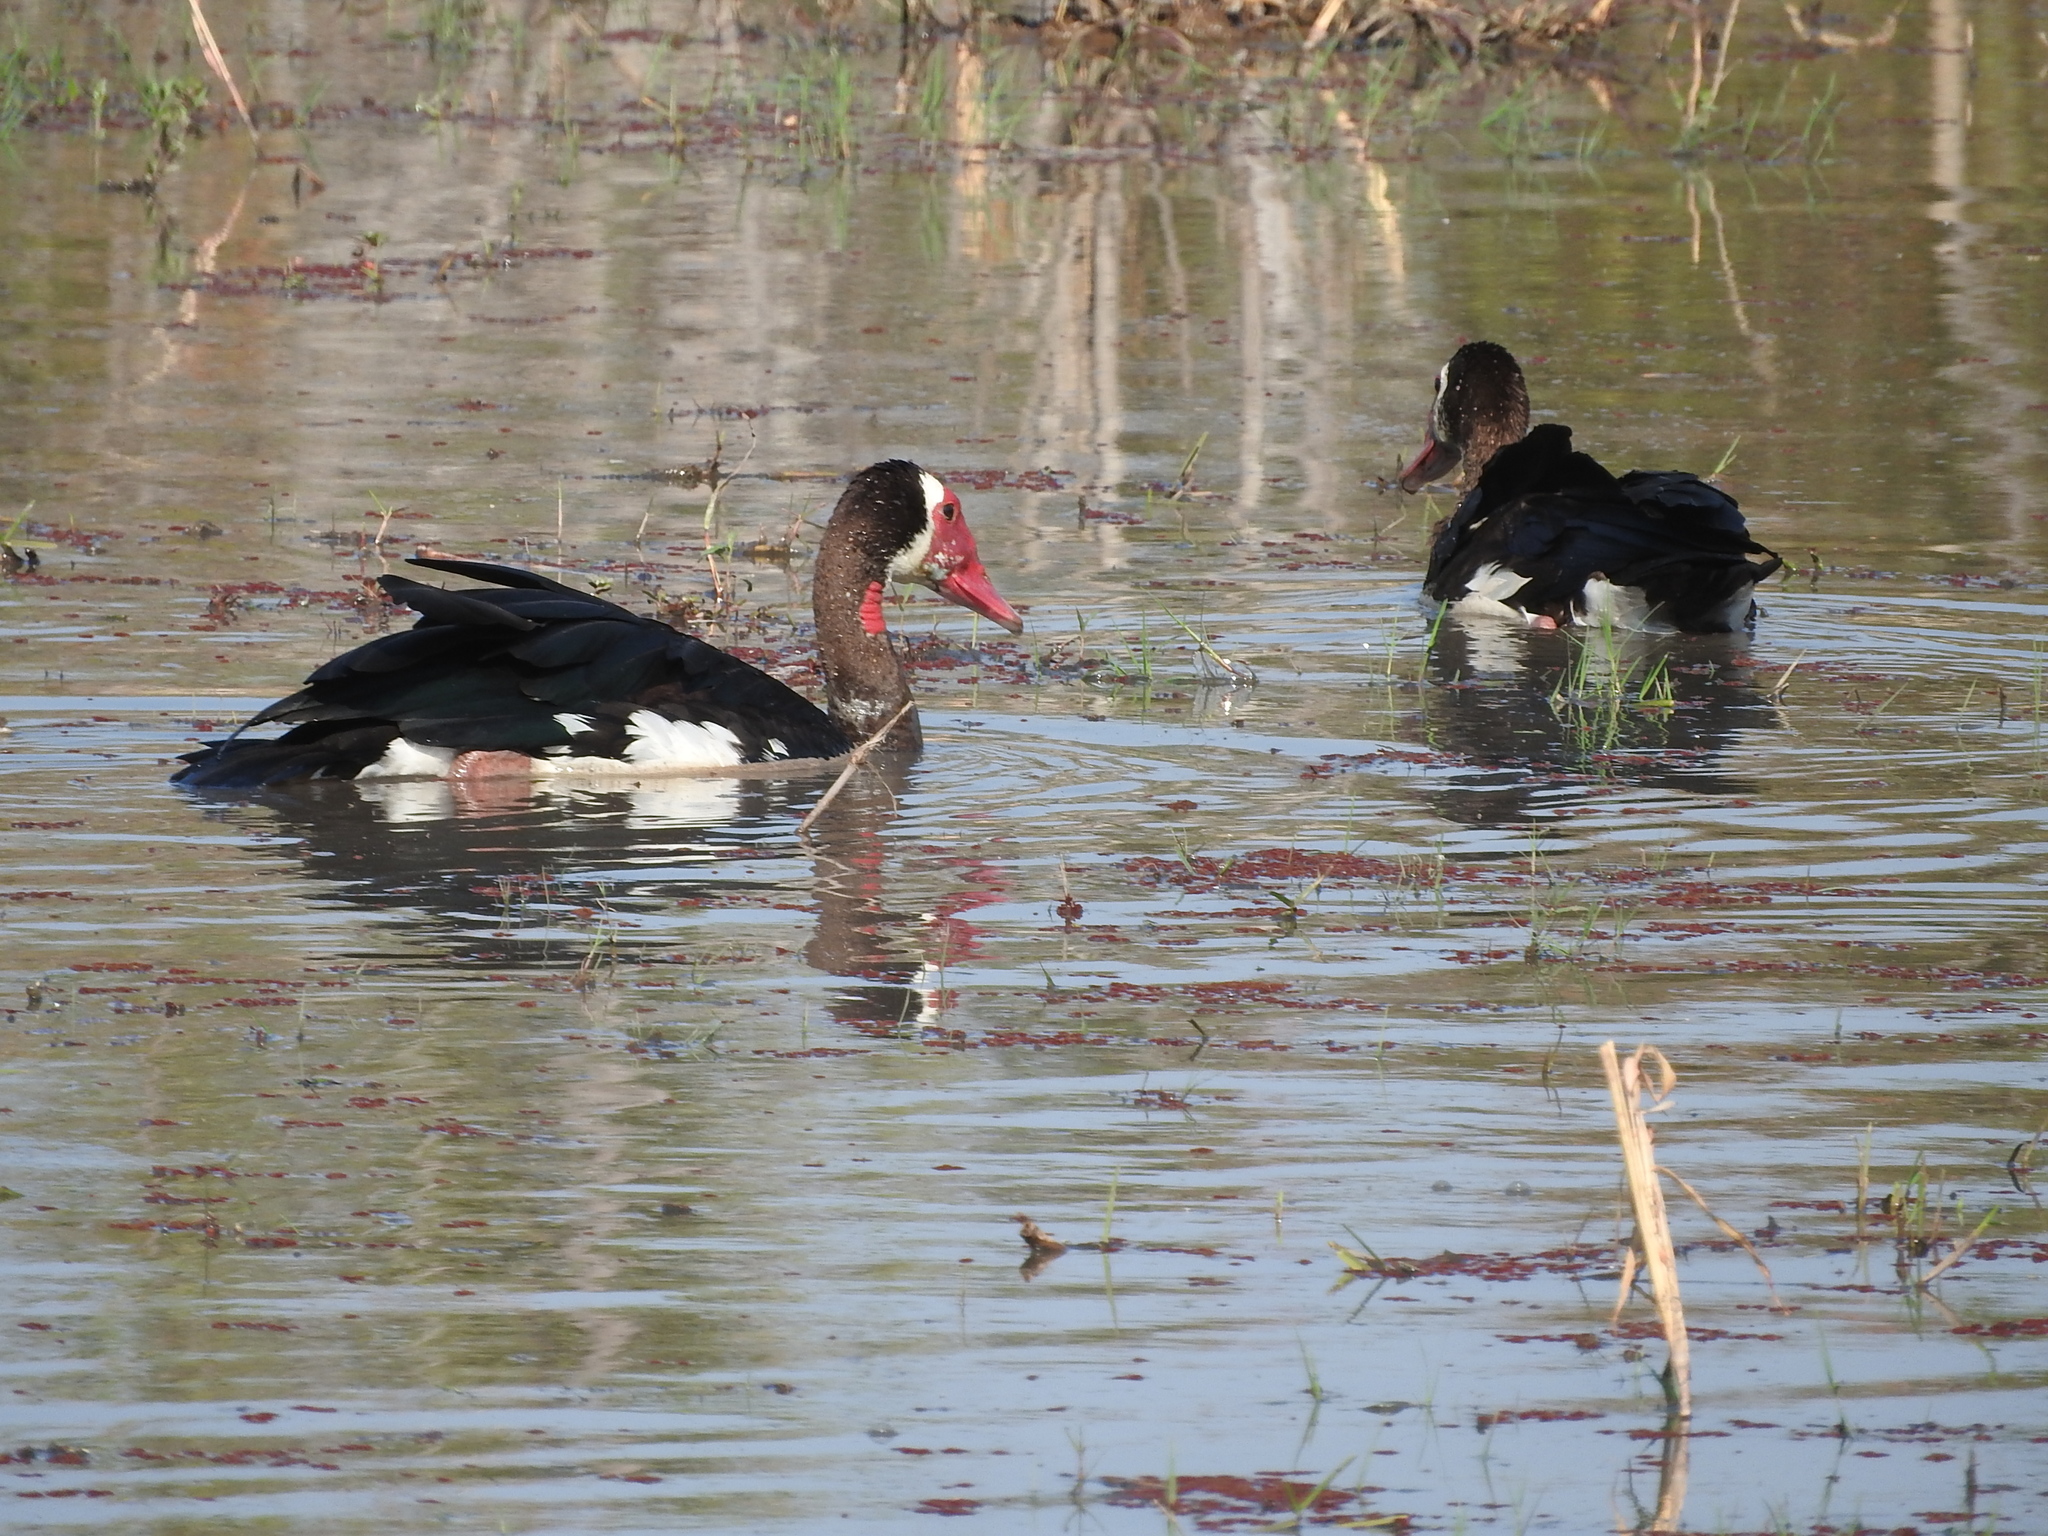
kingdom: Animalia
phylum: Chordata
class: Aves
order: Anseriformes
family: Anatidae
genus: Plectropterus
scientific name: Plectropterus gambensis
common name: Spur-winged goose
